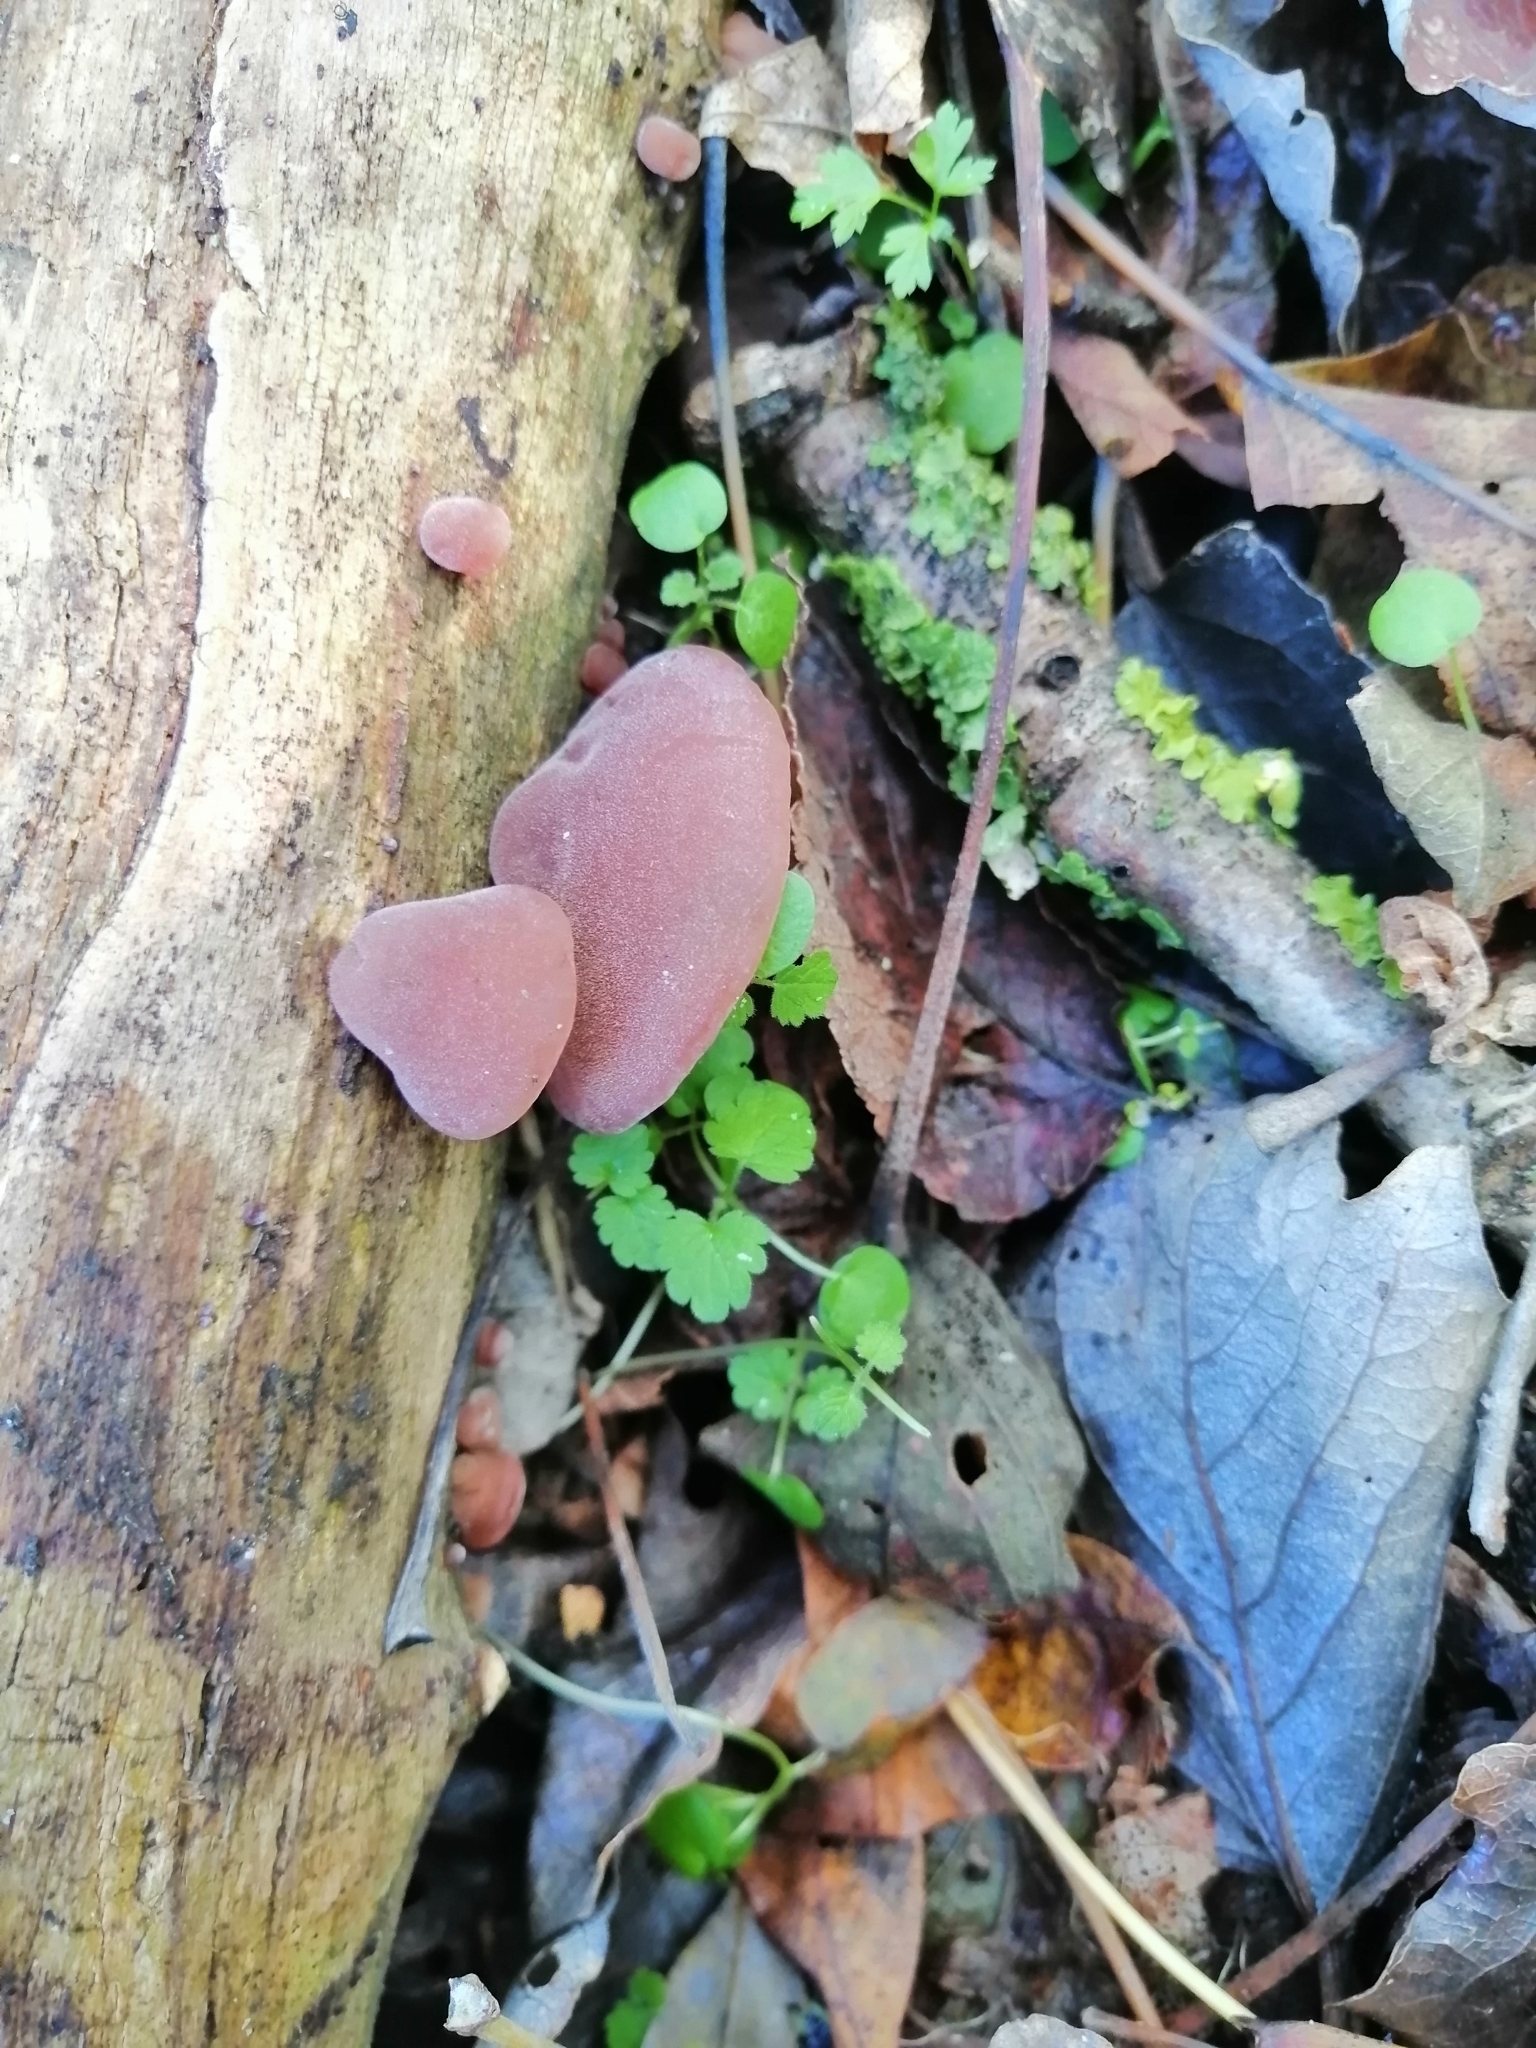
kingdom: Fungi
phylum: Basidiomycota
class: Agaricomycetes
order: Auriculariales
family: Auriculariaceae
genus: Auricularia
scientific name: Auricularia auricula-judae
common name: Jelly ear
